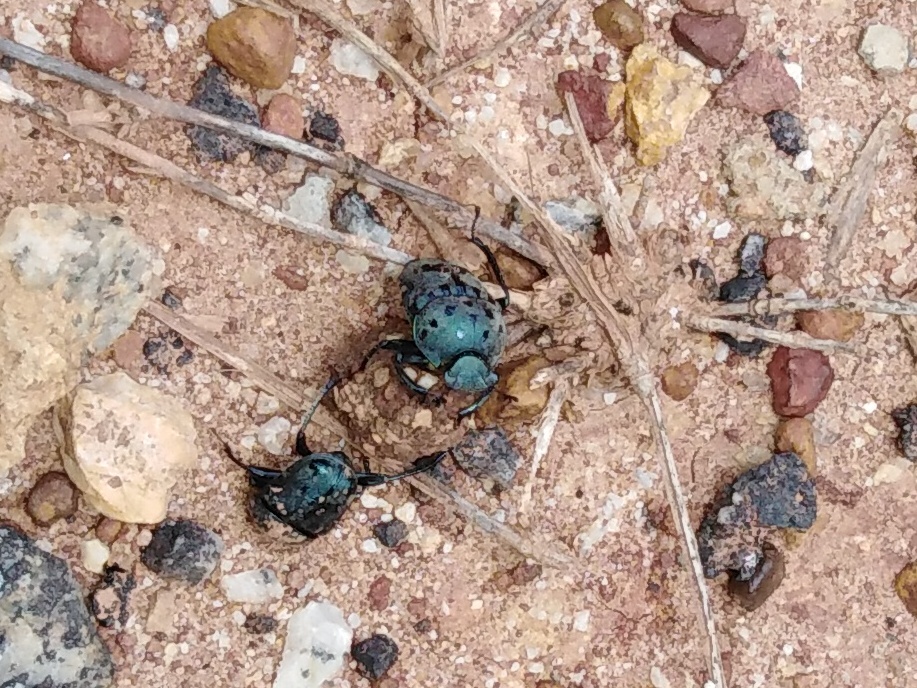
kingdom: Animalia
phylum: Arthropoda
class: Insecta
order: Coleoptera
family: Scarabaeidae
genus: Gymnopleurus
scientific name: Gymnopleurus miliaris
